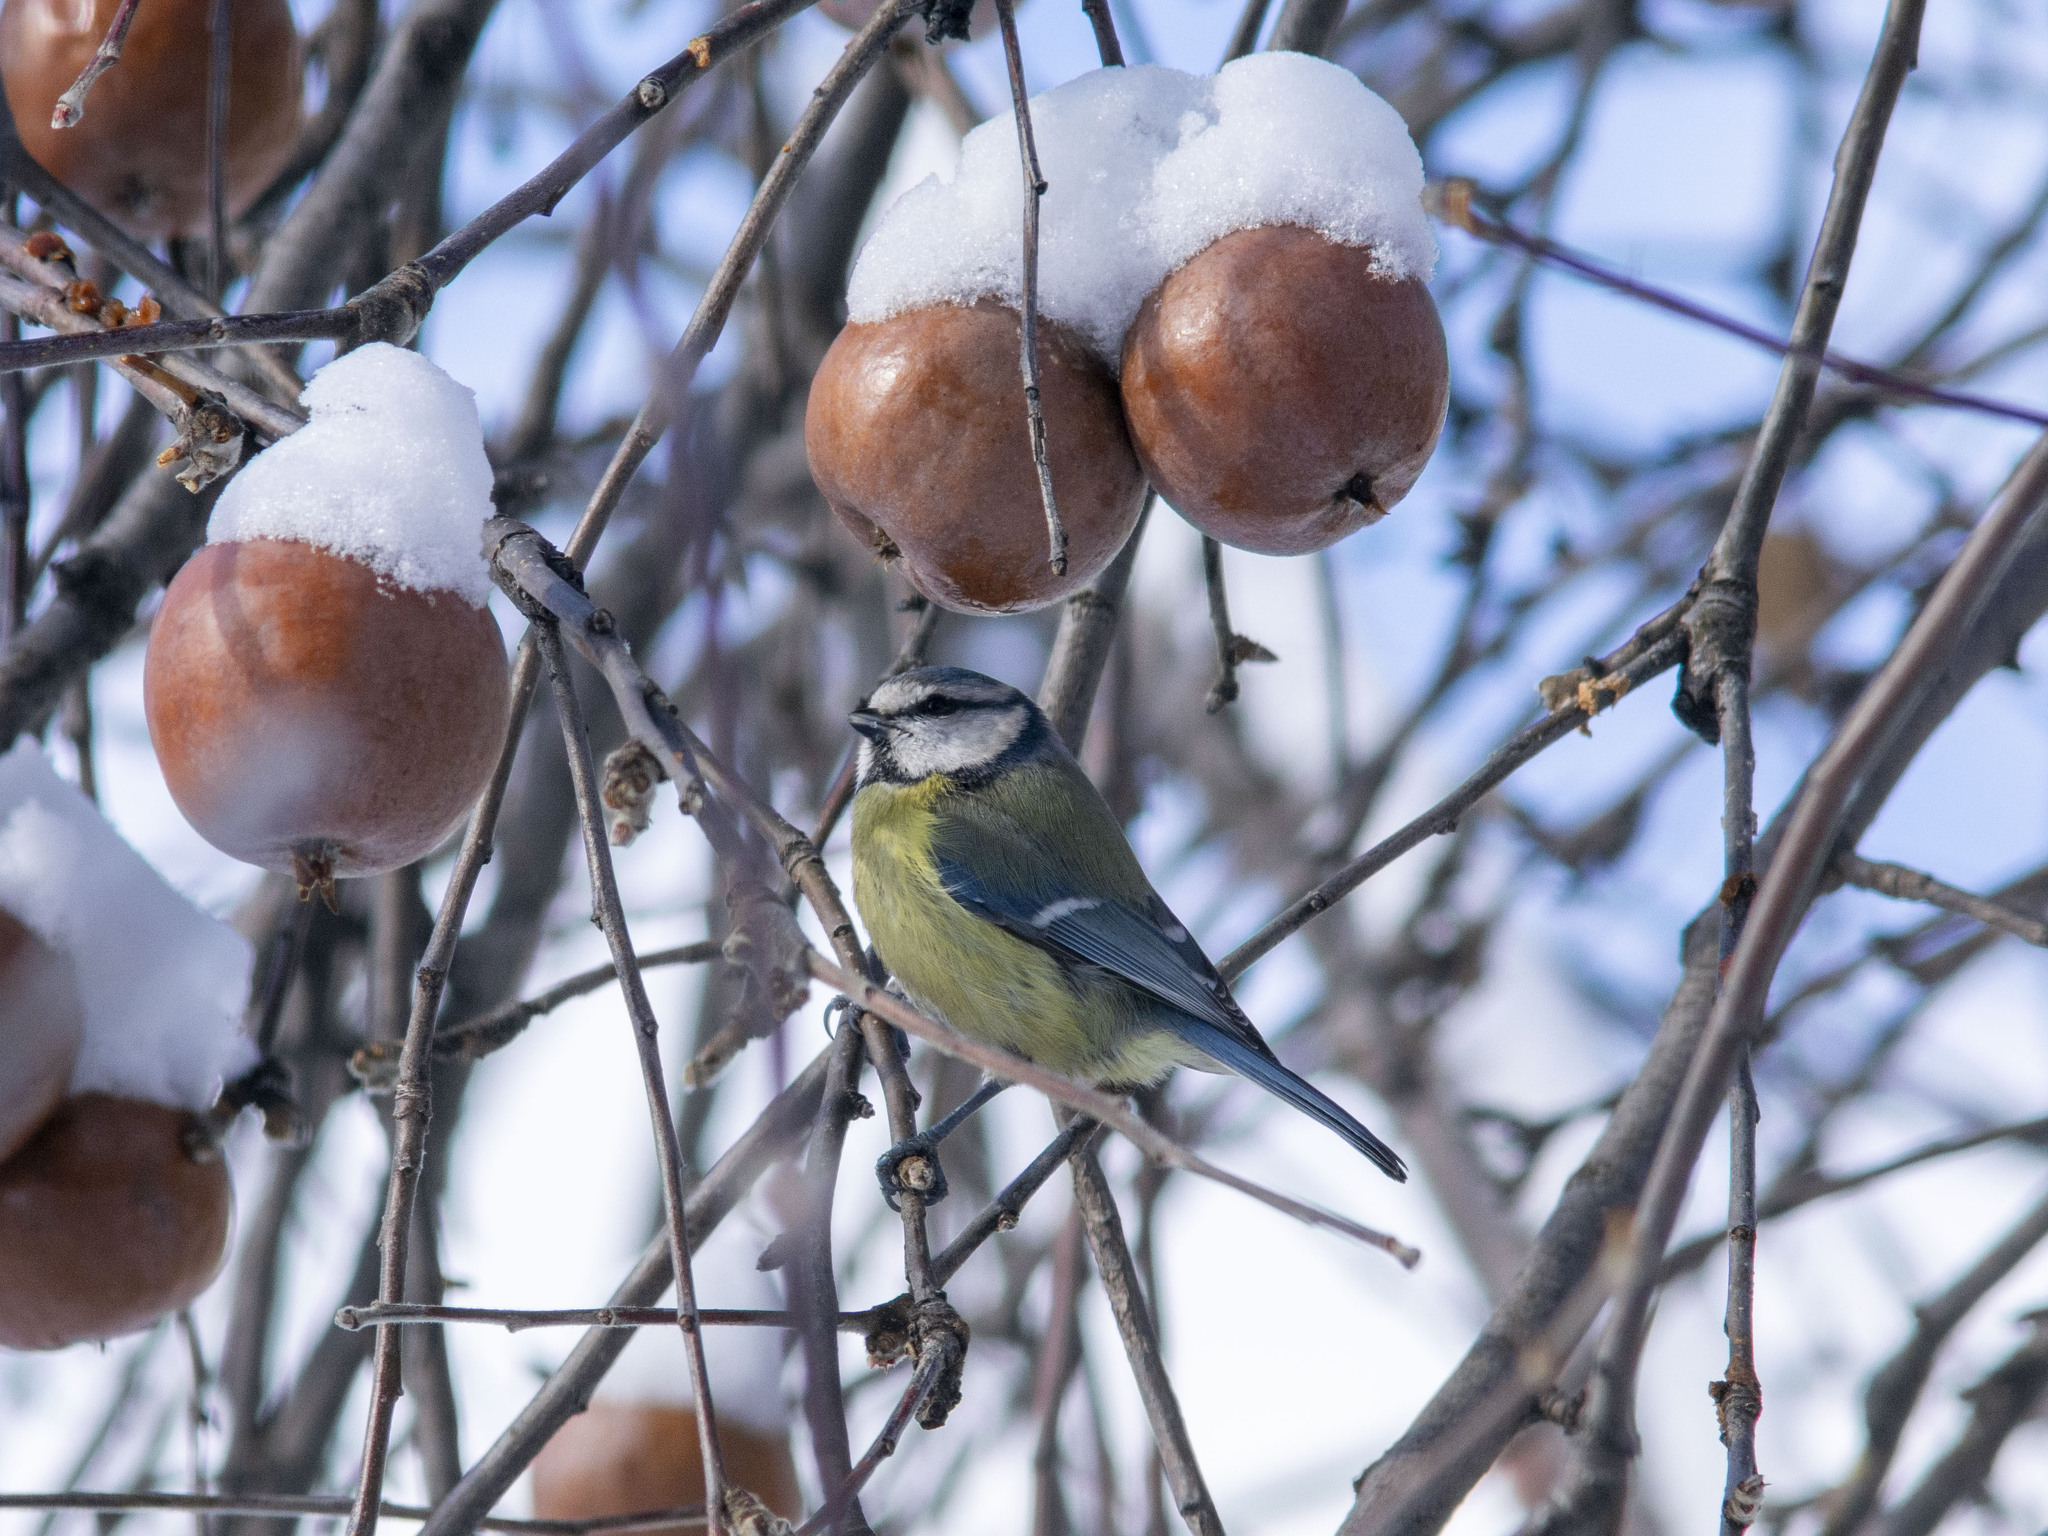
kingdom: Animalia
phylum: Chordata
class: Aves
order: Passeriformes
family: Paridae
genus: Cyanistes
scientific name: Cyanistes caeruleus
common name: Eurasian blue tit
